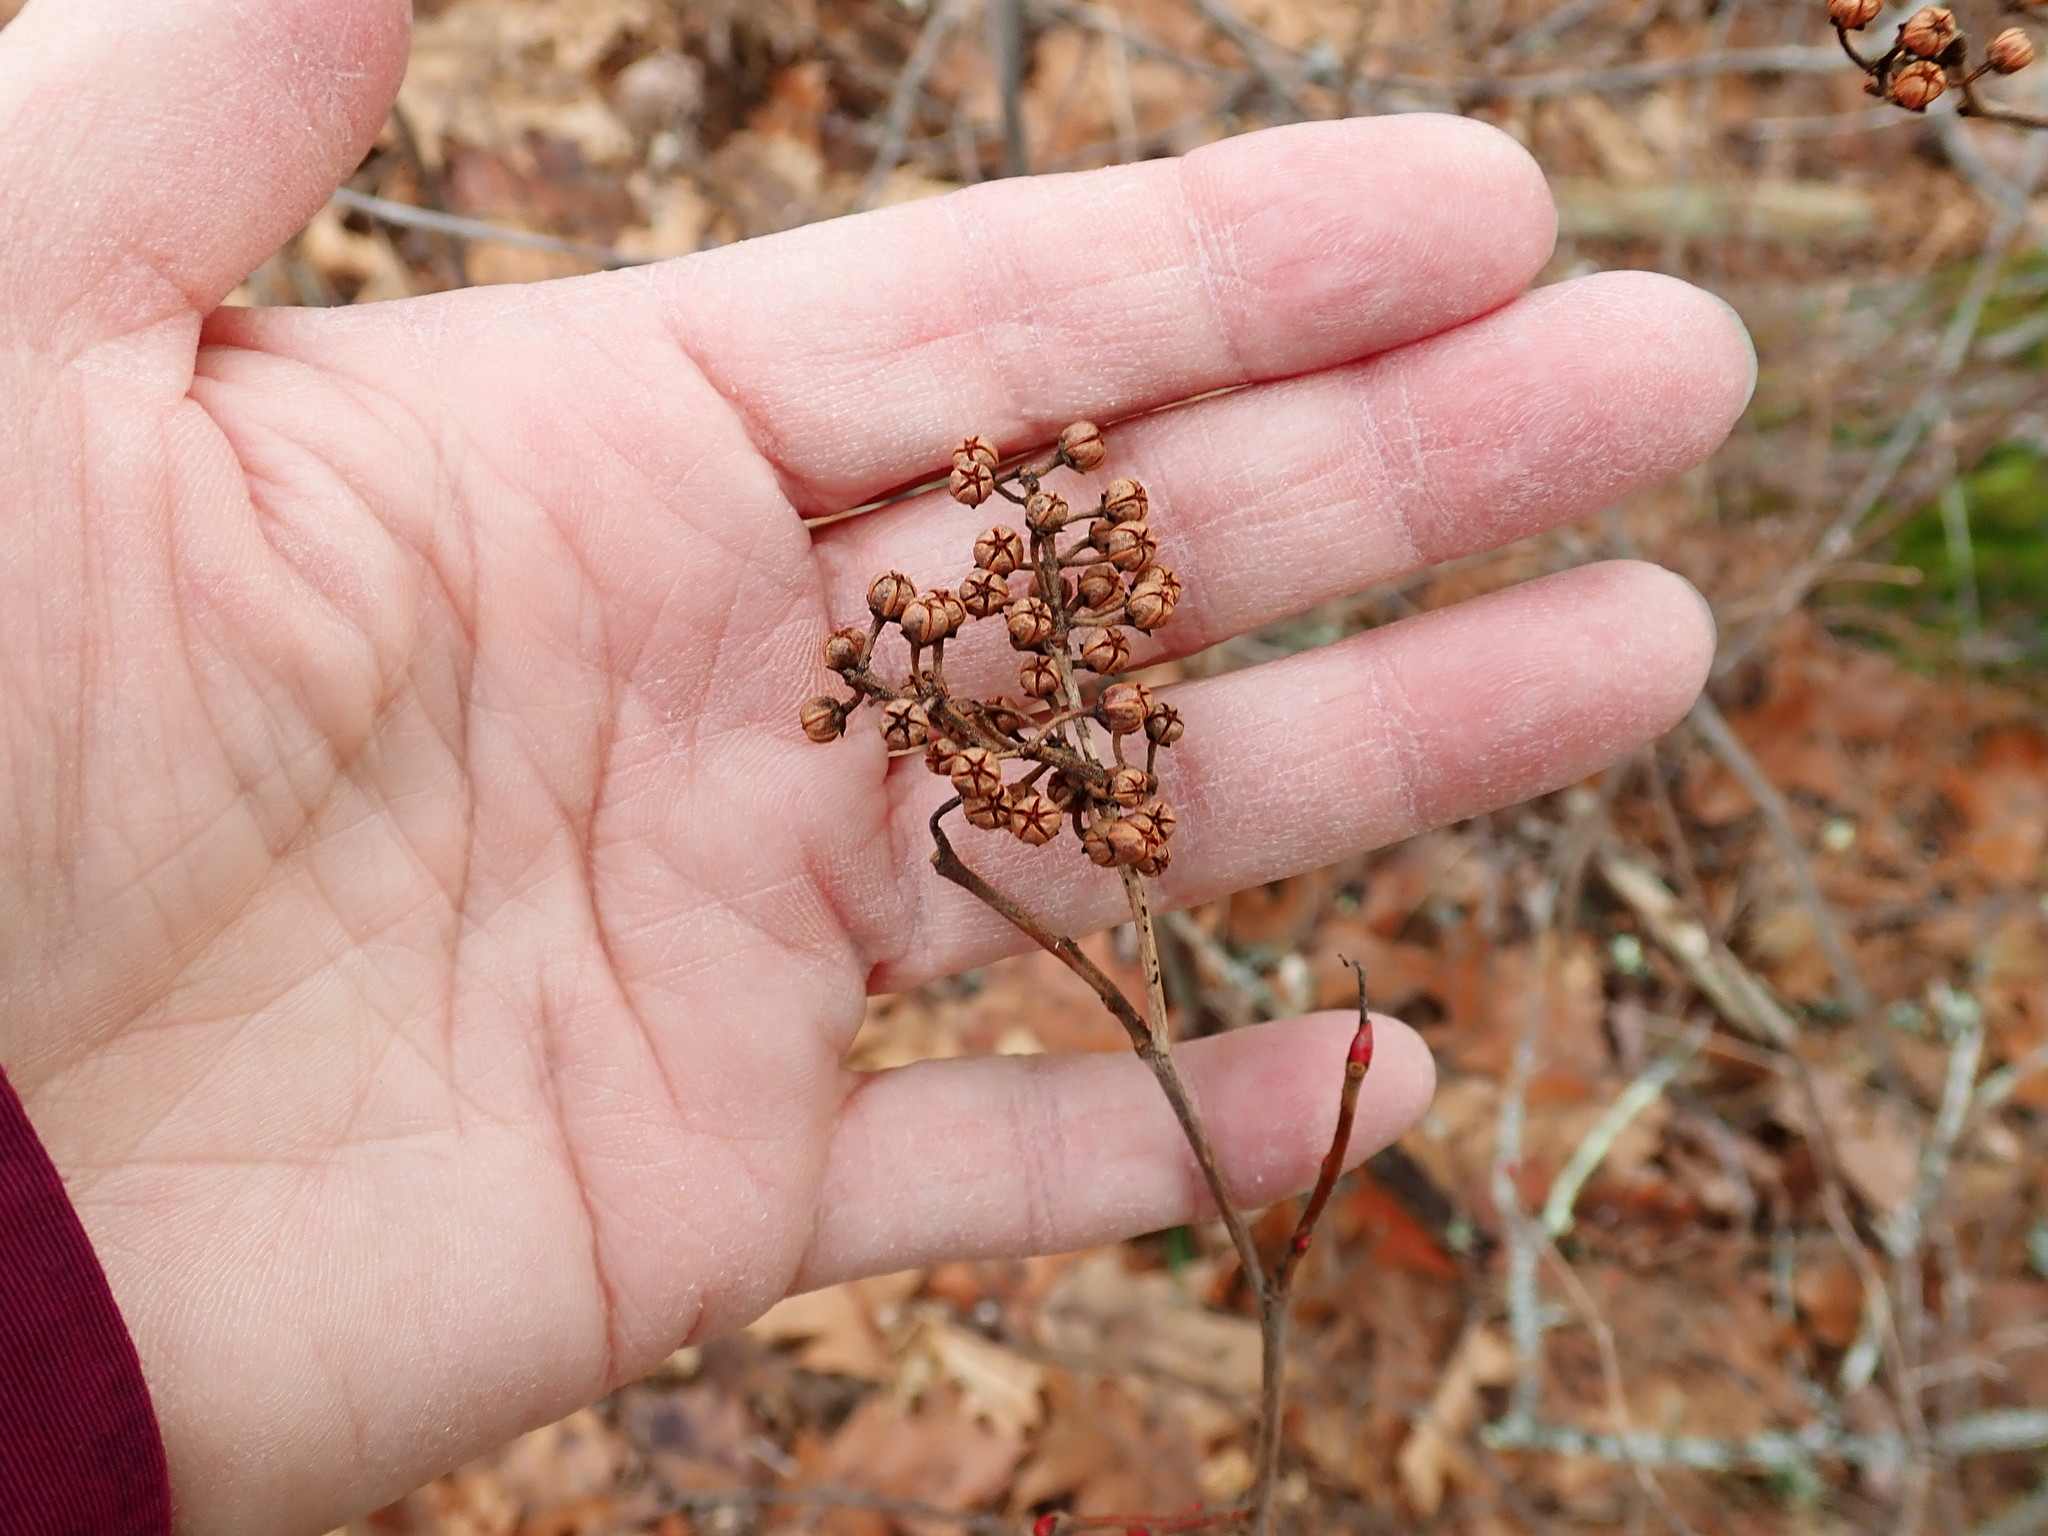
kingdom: Plantae
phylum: Tracheophyta
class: Magnoliopsida
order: Ericales
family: Ericaceae
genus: Lyonia
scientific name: Lyonia ligustrina
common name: Maleberry
